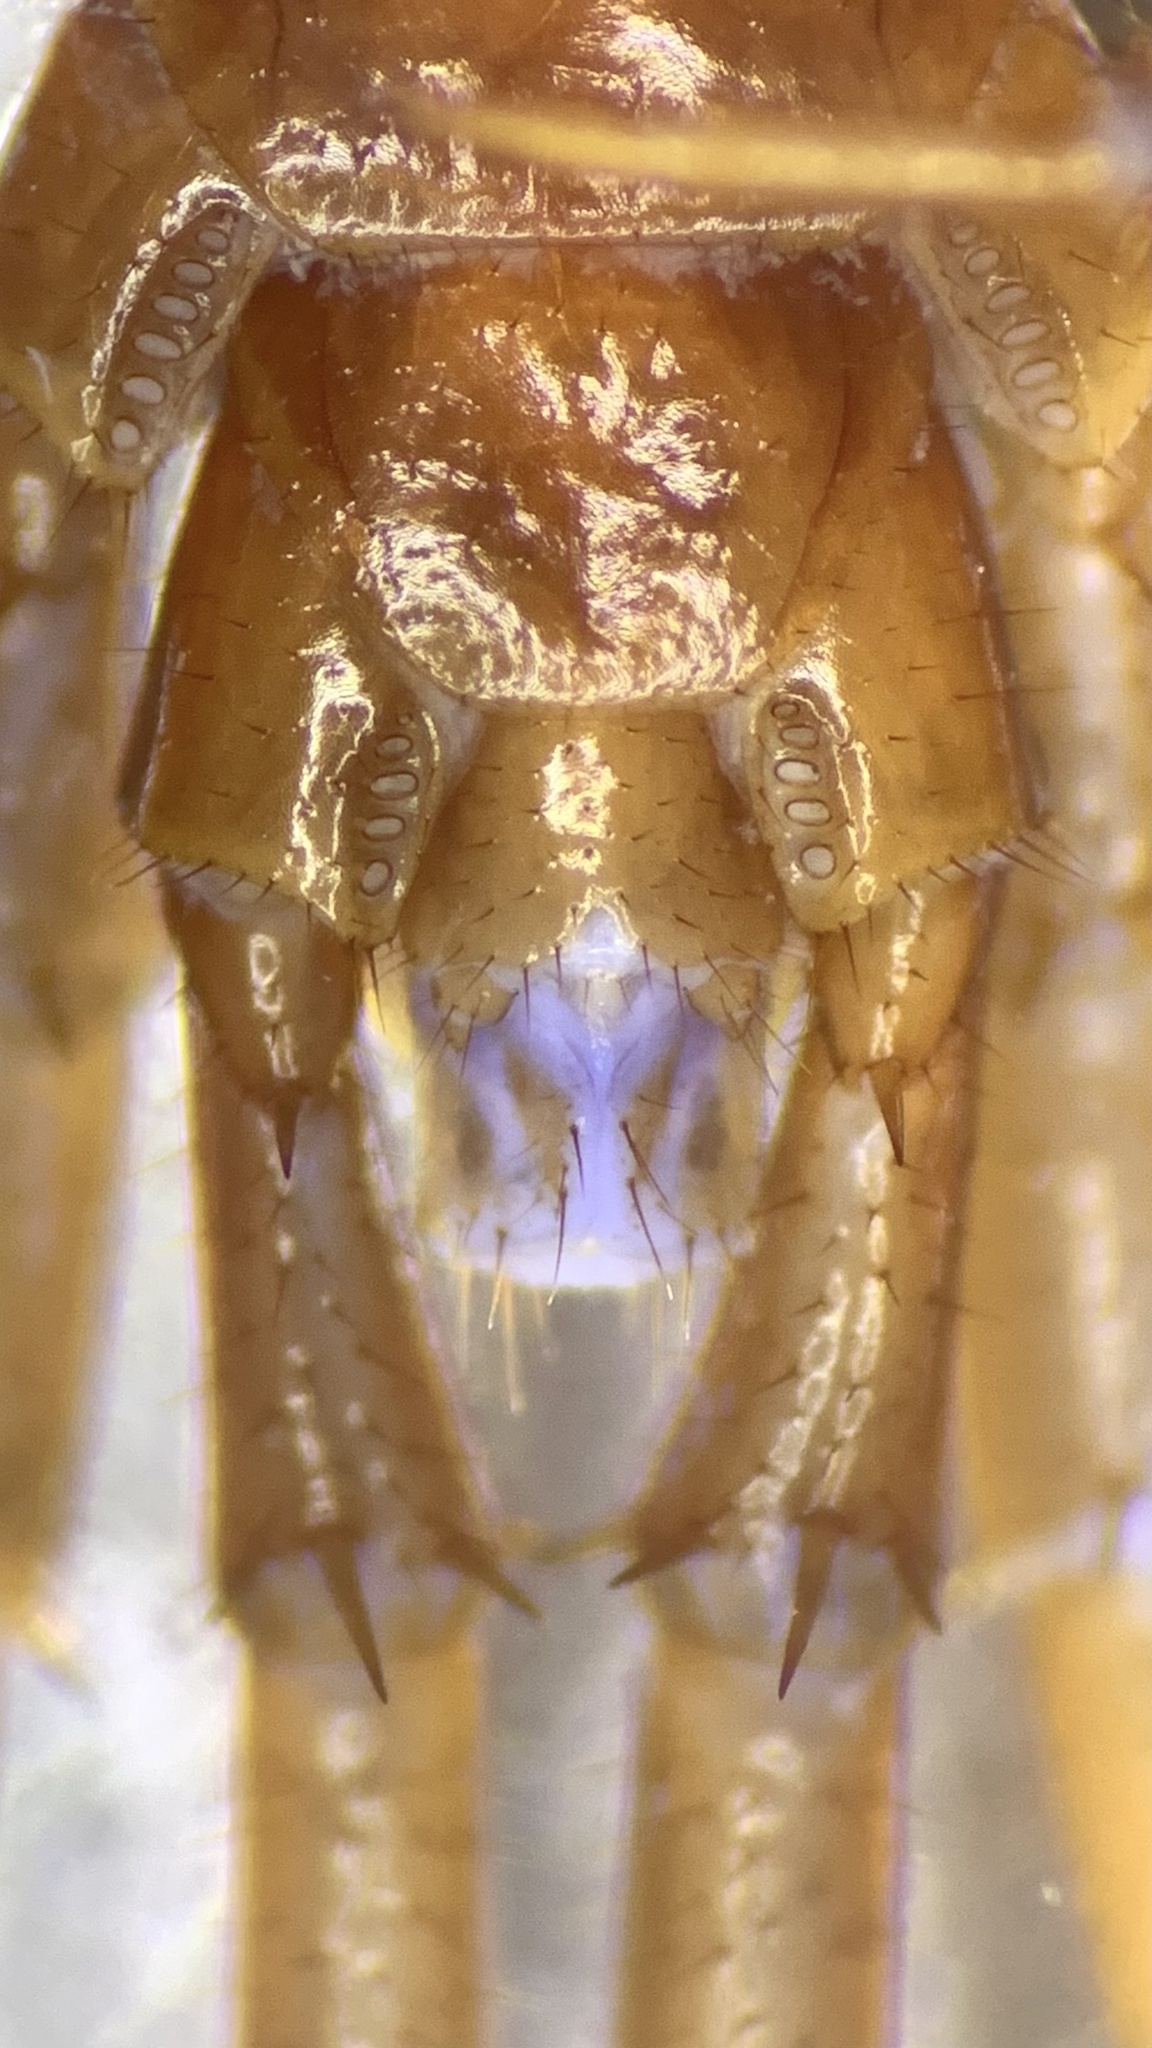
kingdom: Animalia
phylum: Arthropoda
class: Chilopoda
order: Lithobiomorpha
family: Lithobiidae
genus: Lithobius
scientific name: Lithobius forficatus
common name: Centipede
